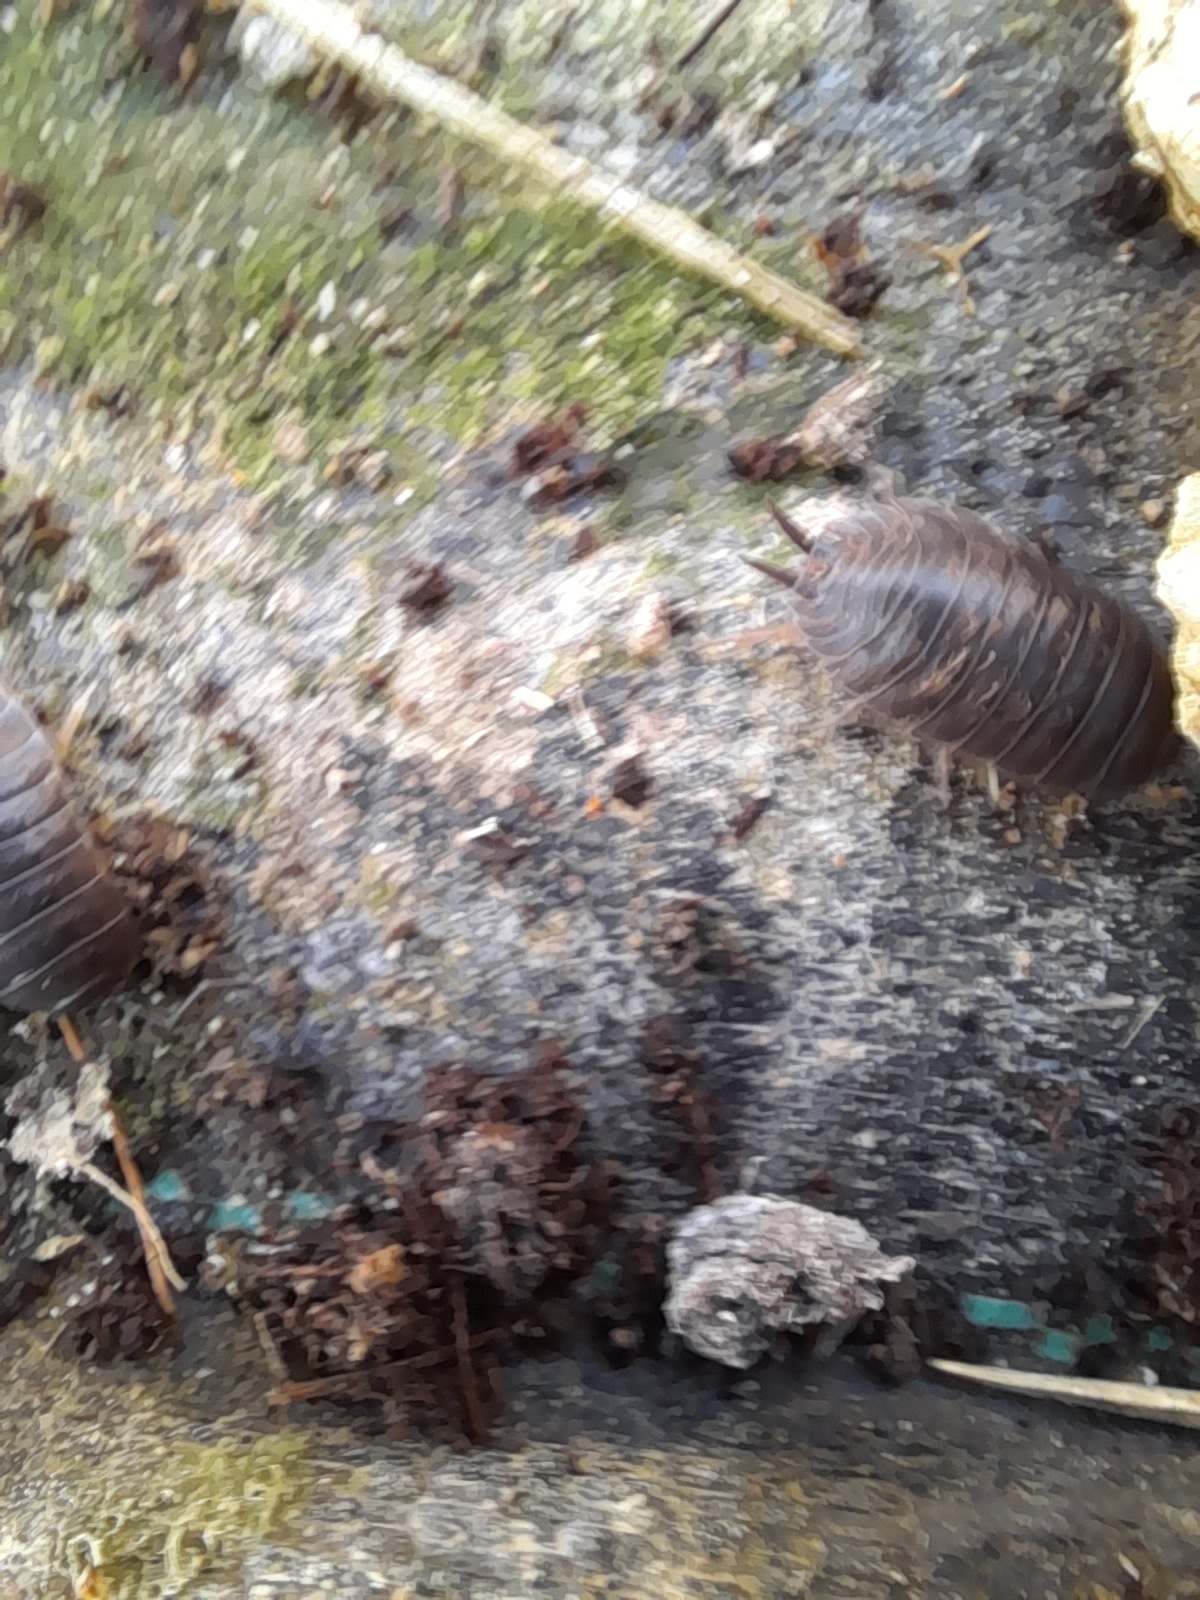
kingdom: Animalia
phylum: Arthropoda
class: Malacostraca
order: Isopoda
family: Porcellionidae
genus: Porcellio
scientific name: Porcellio laevis
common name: Swift woodlouse
